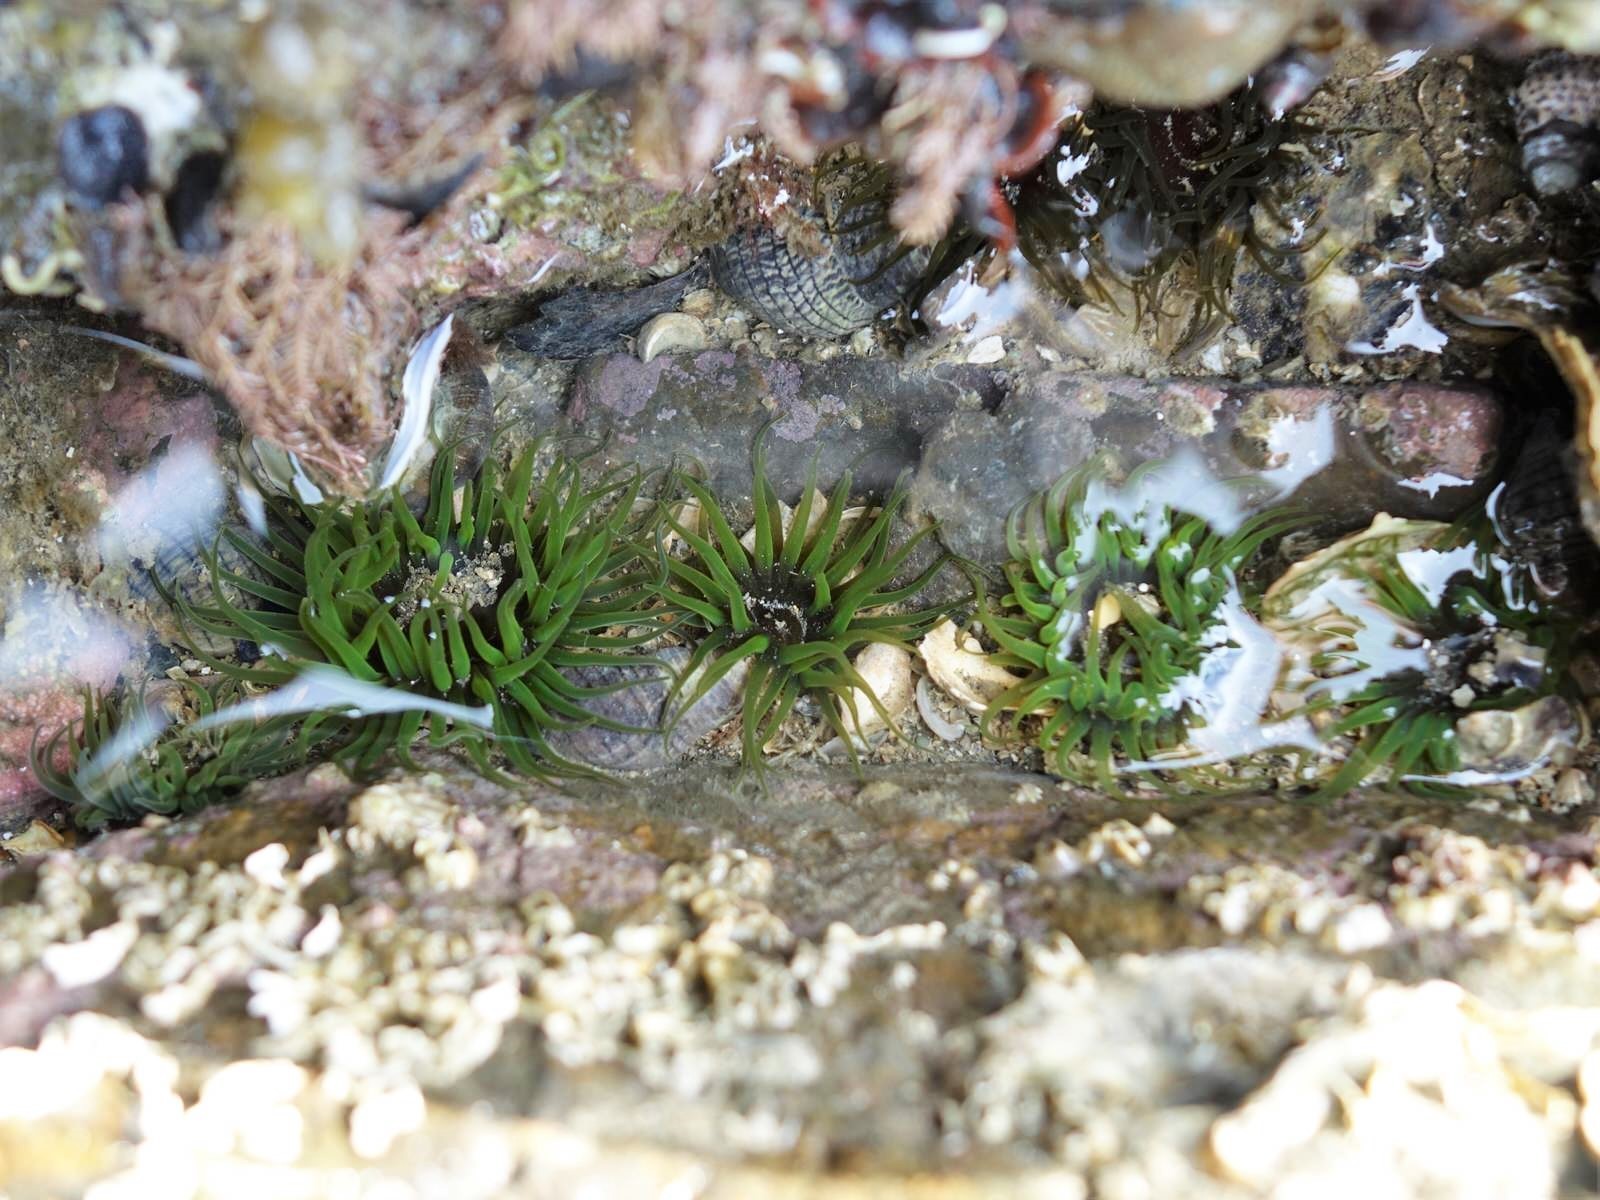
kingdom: Animalia
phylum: Cnidaria
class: Anthozoa
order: Actiniaria
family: Actiniidae
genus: Aulactinia
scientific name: Aulactinia veratra
